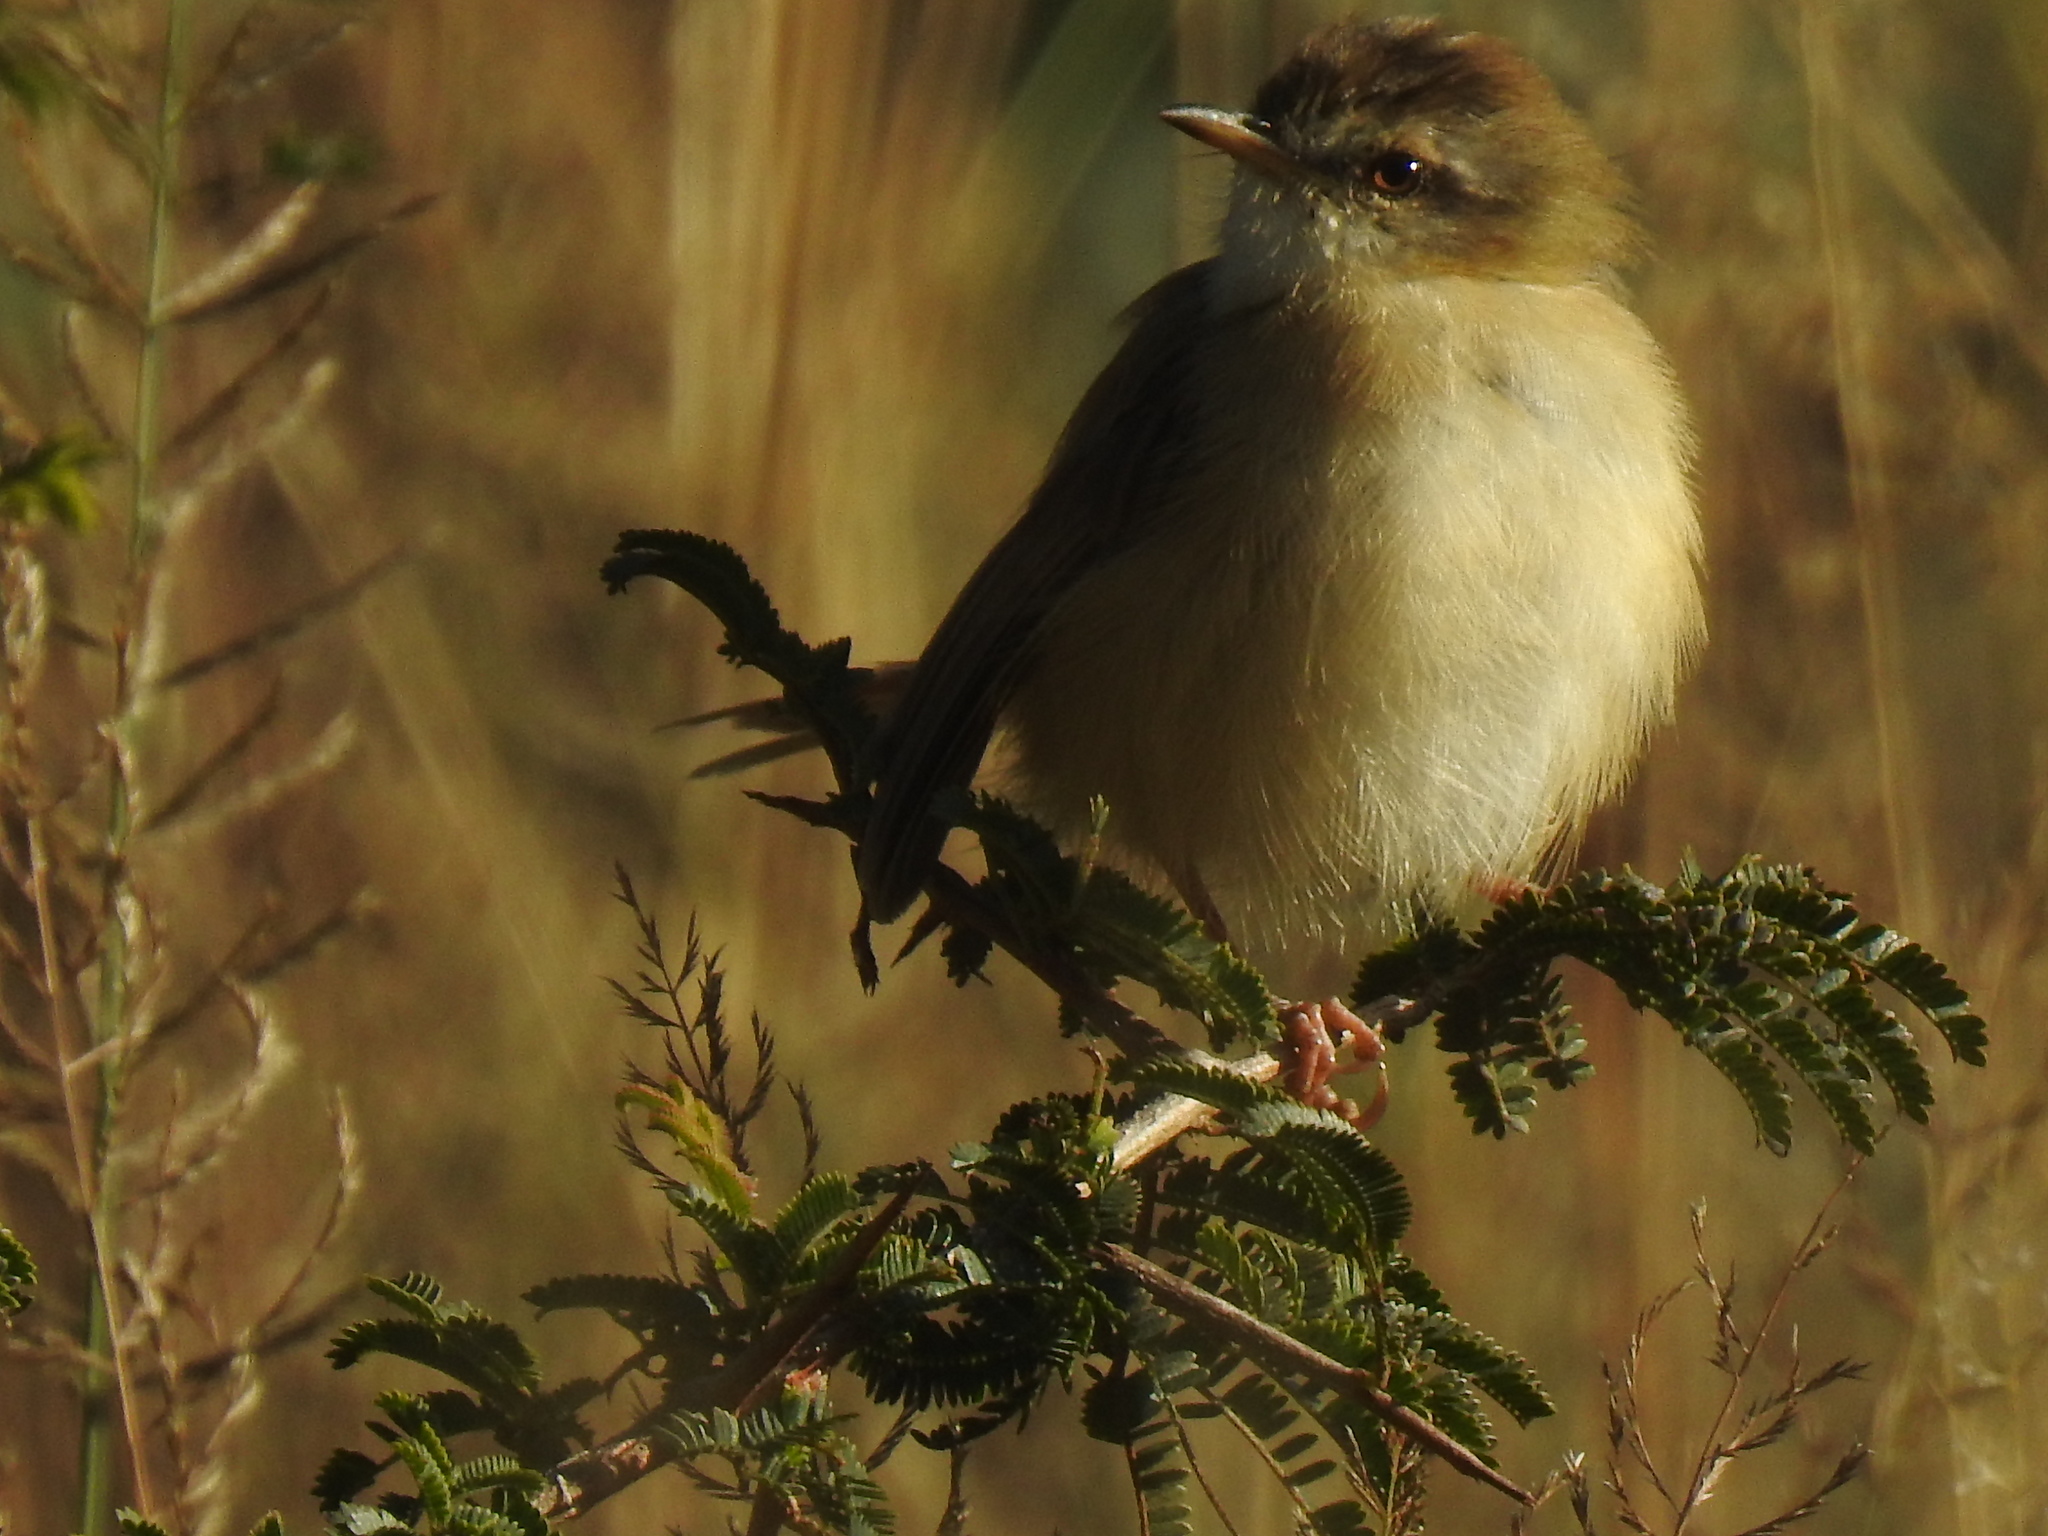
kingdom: Animalia
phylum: Chordata
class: Aves
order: Passeriformes
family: Cisticolidae
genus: Prinia
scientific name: Prinia subflava
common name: Tawny-flanked prinia
